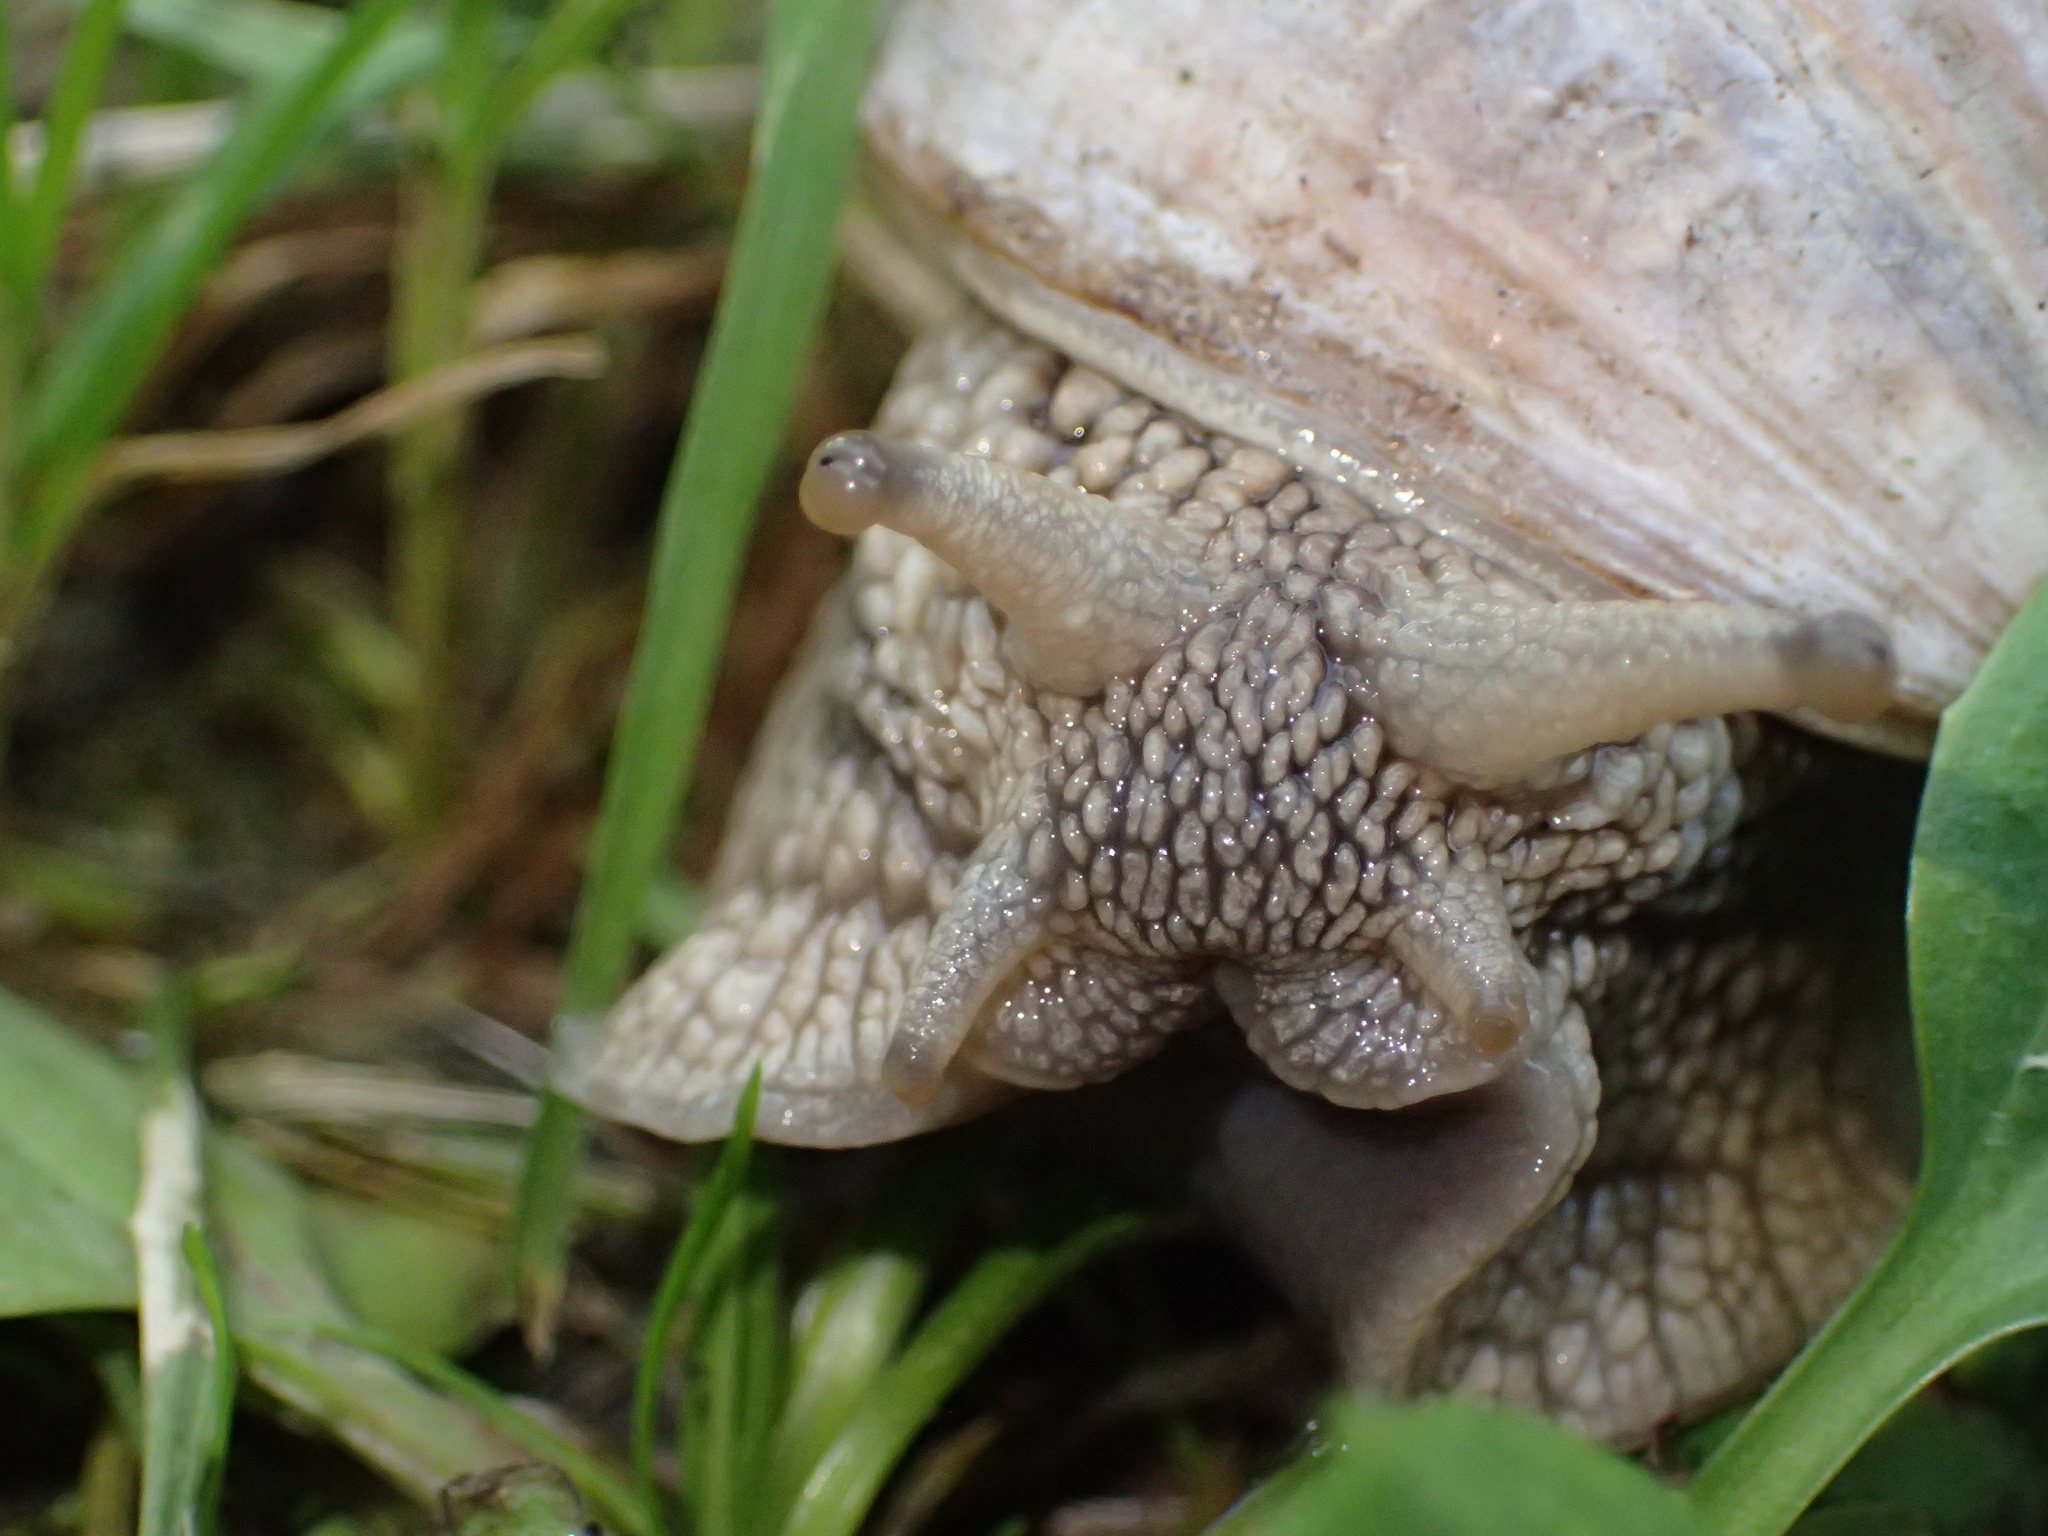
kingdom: Animalia
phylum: Mollusca
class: Gastropoda
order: Stylommatophora
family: Helicidae
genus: Helix
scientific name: Helix pomatia
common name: Roman snail
